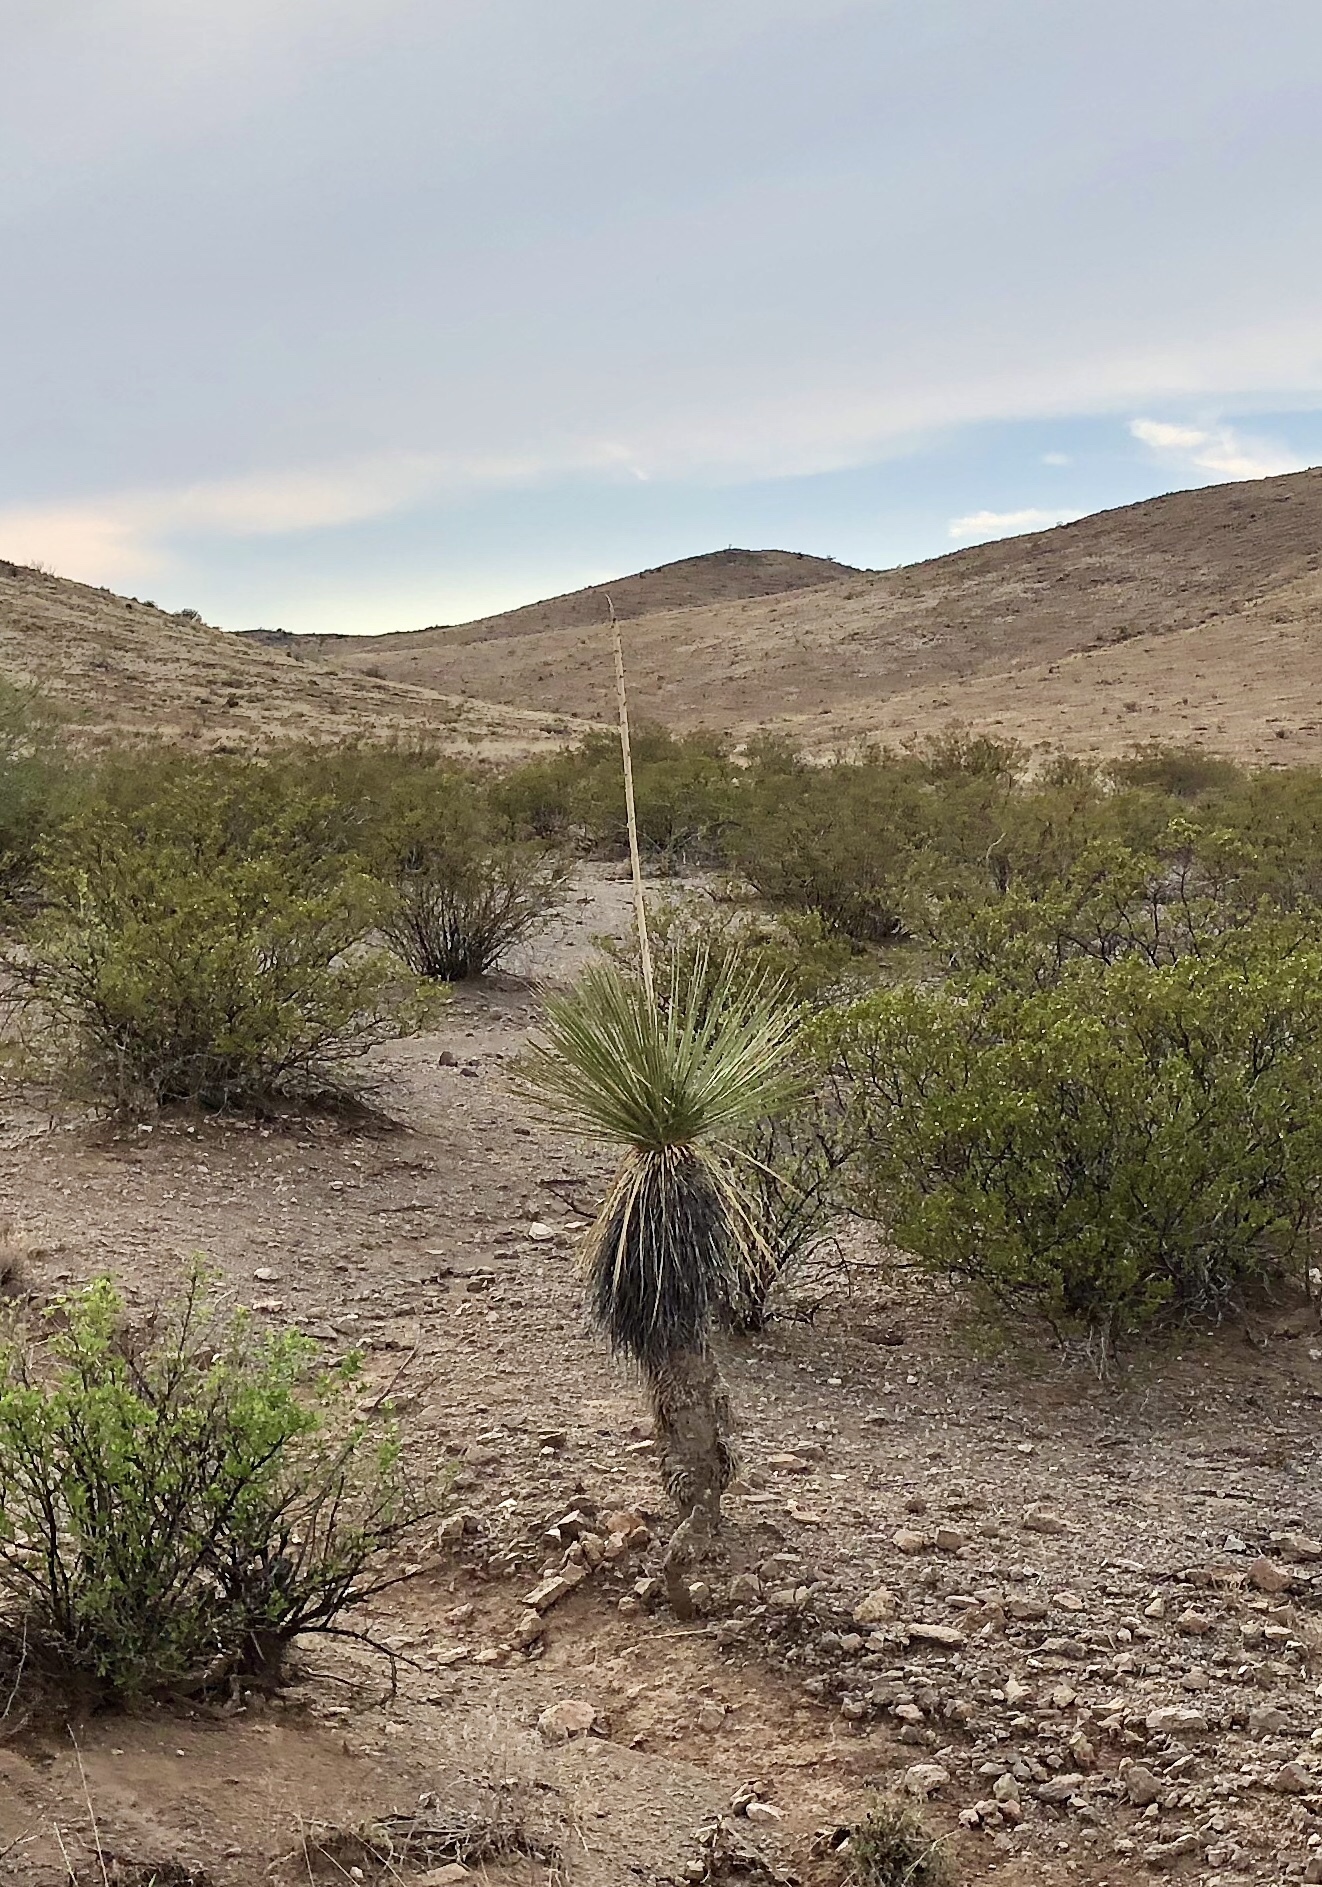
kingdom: Plantae
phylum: Tracheophyta
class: Liliopsida
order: Asparagales
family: Asparagaceae
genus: Yucca
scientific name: Yucca elata
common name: Palmella
